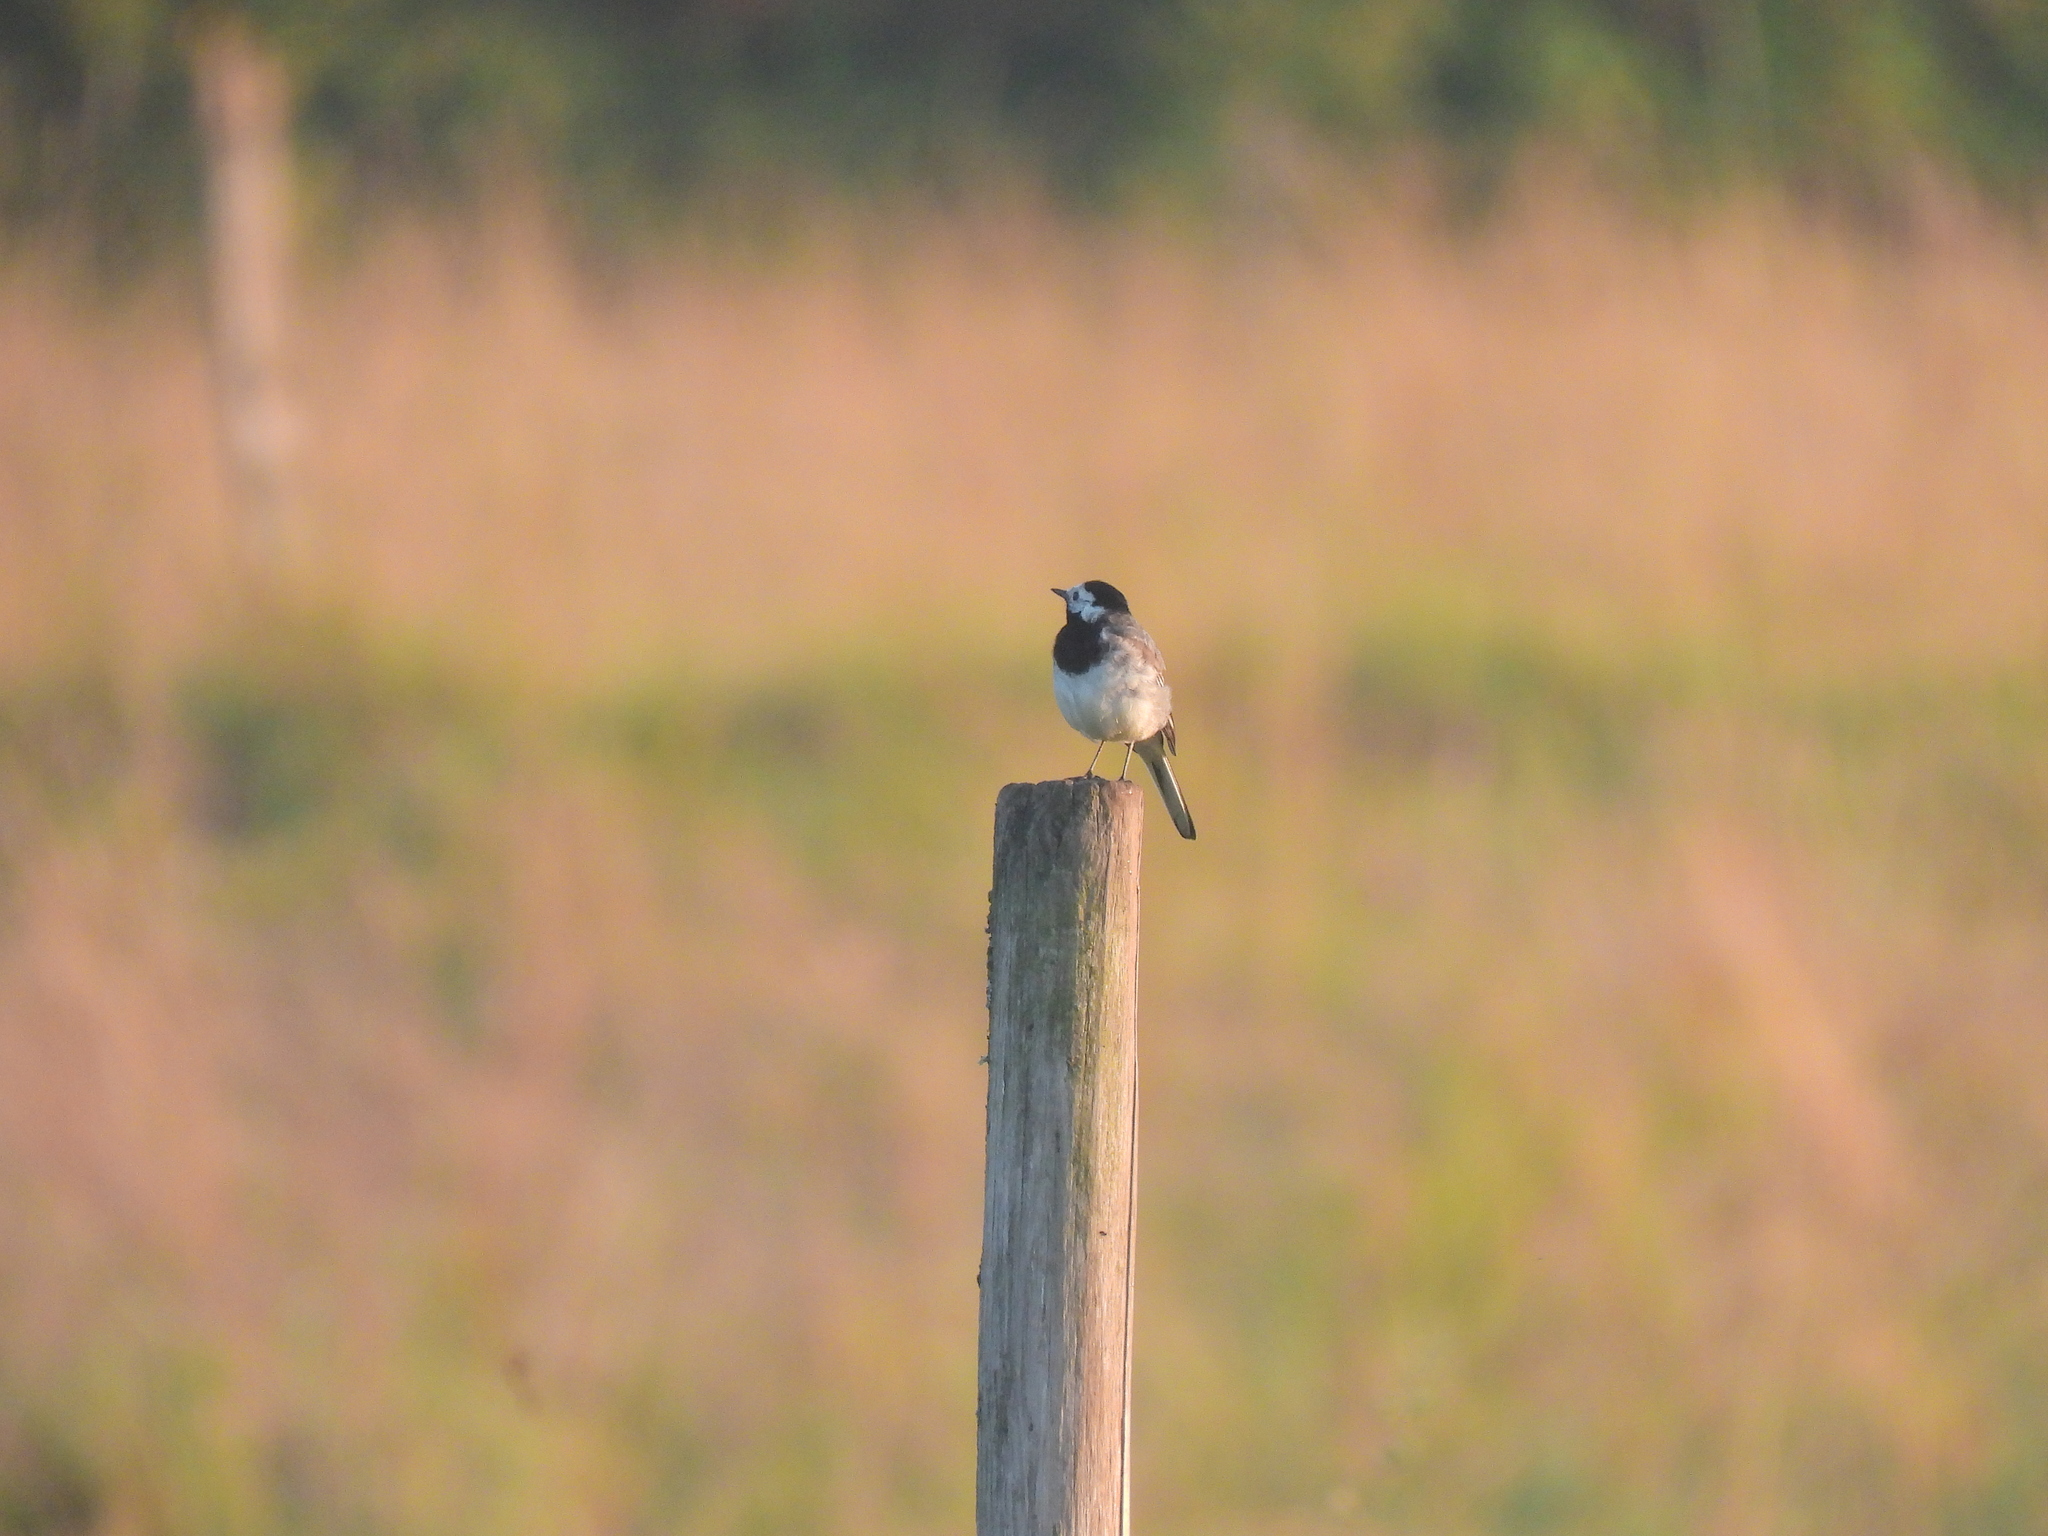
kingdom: Animalia
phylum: Chordata
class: Aves
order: Passeriformes
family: Motacillidae
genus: Motacilla
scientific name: Motacilla alba
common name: White wagtail
